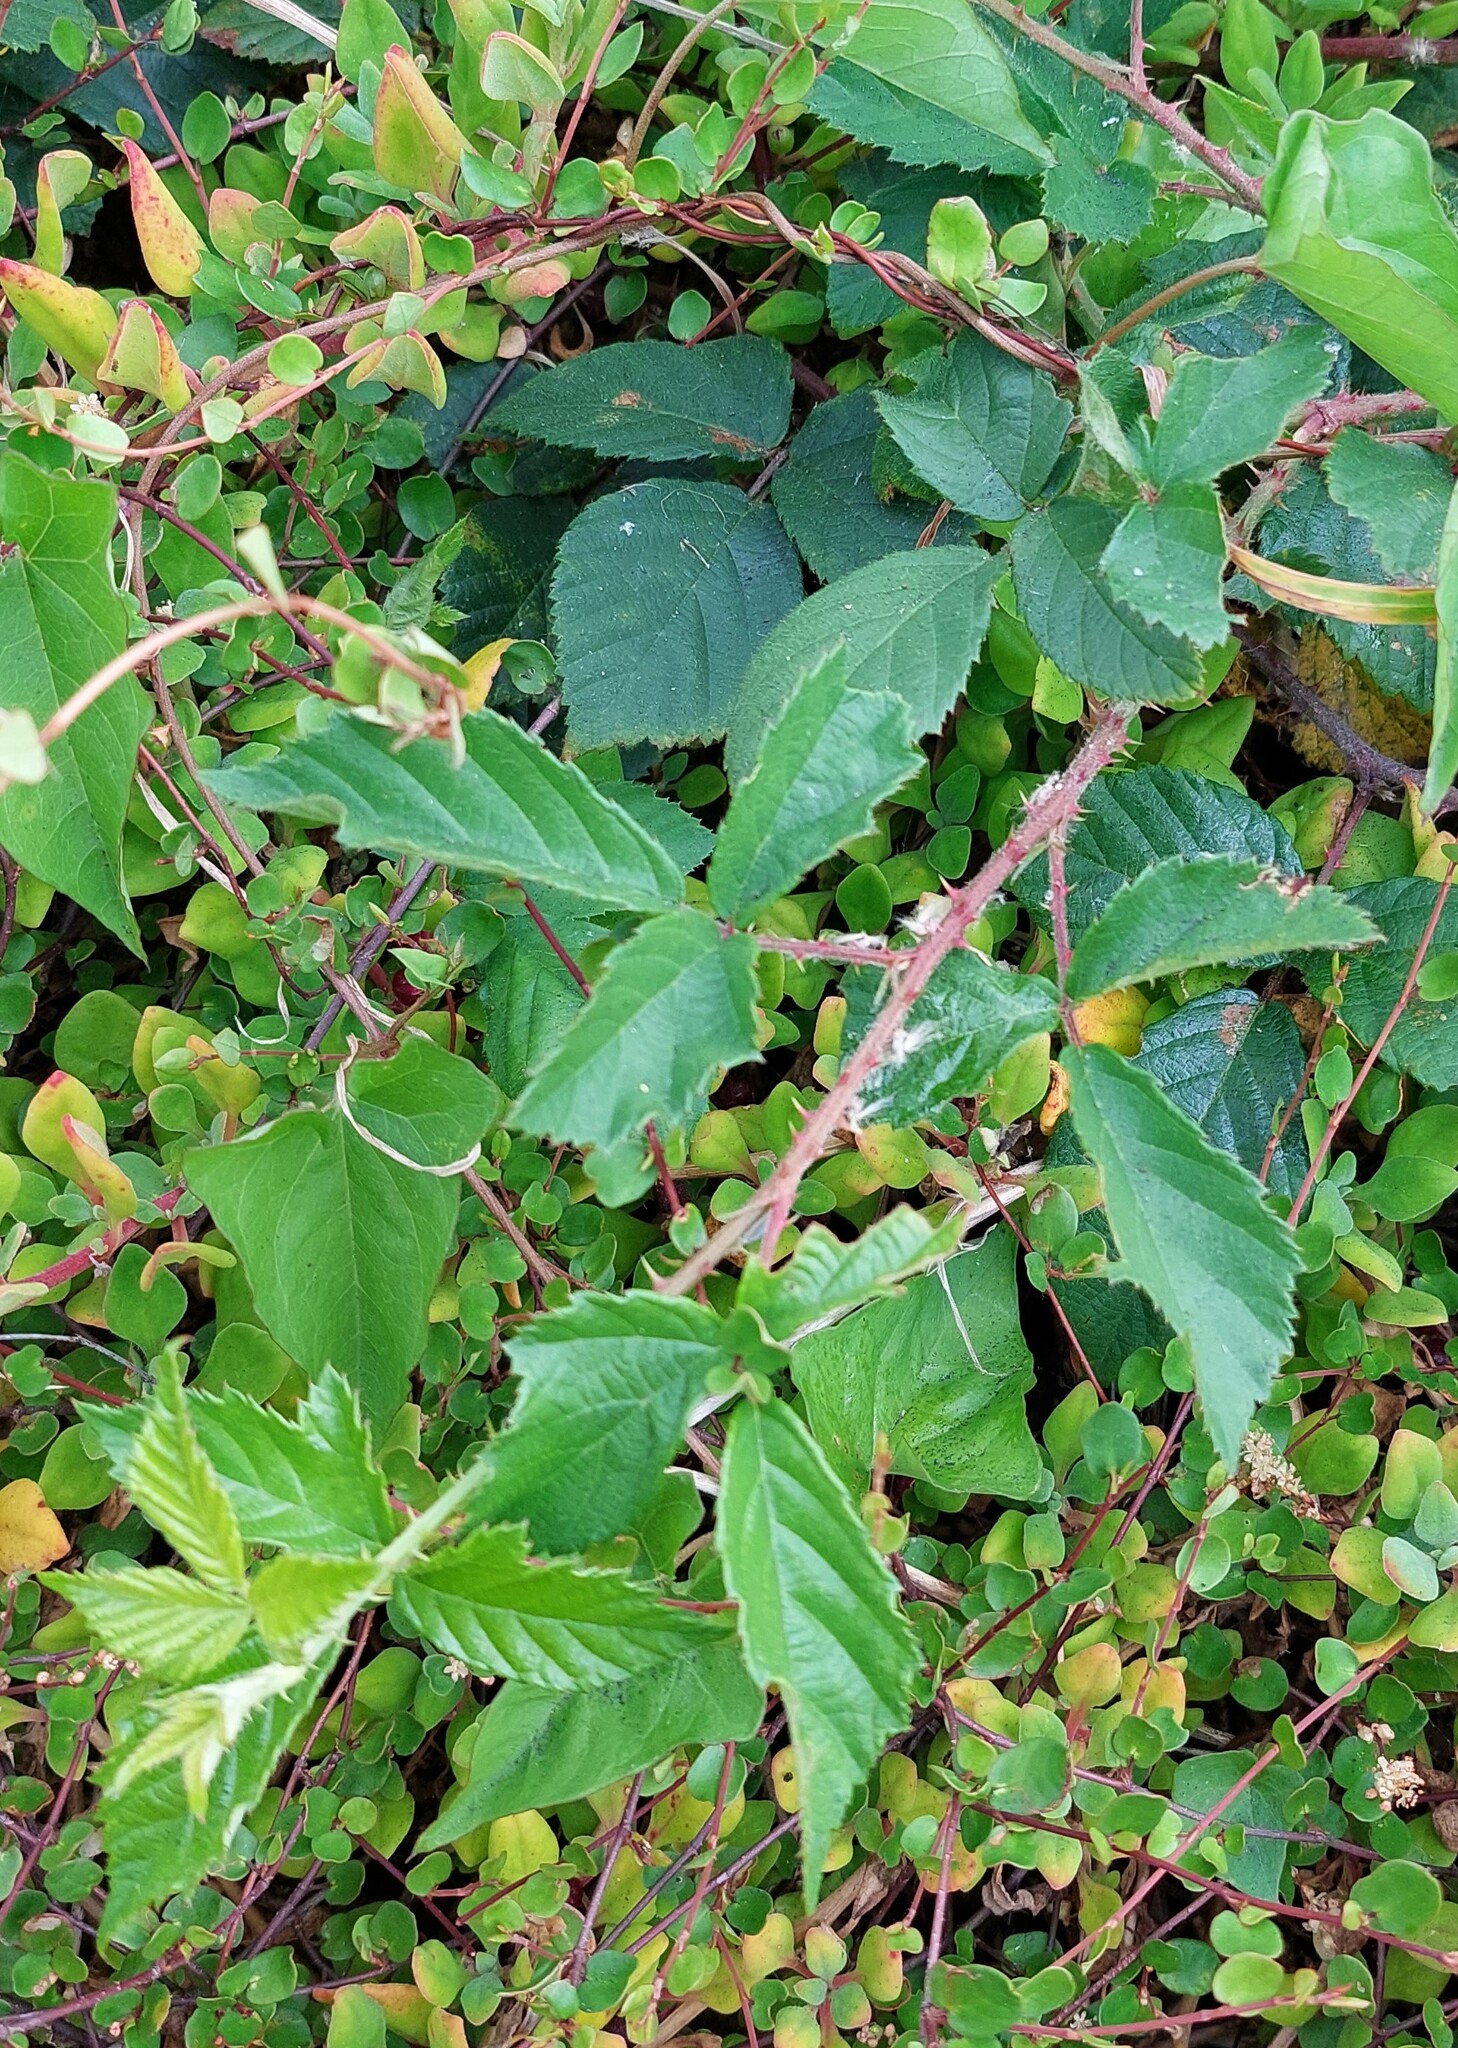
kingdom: Plantae
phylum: Tracheophyta
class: Magnoliopsida
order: Rosales
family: Rosaceae
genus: Rubus
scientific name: Rubus fruticosus
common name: Blackberry, bramble
